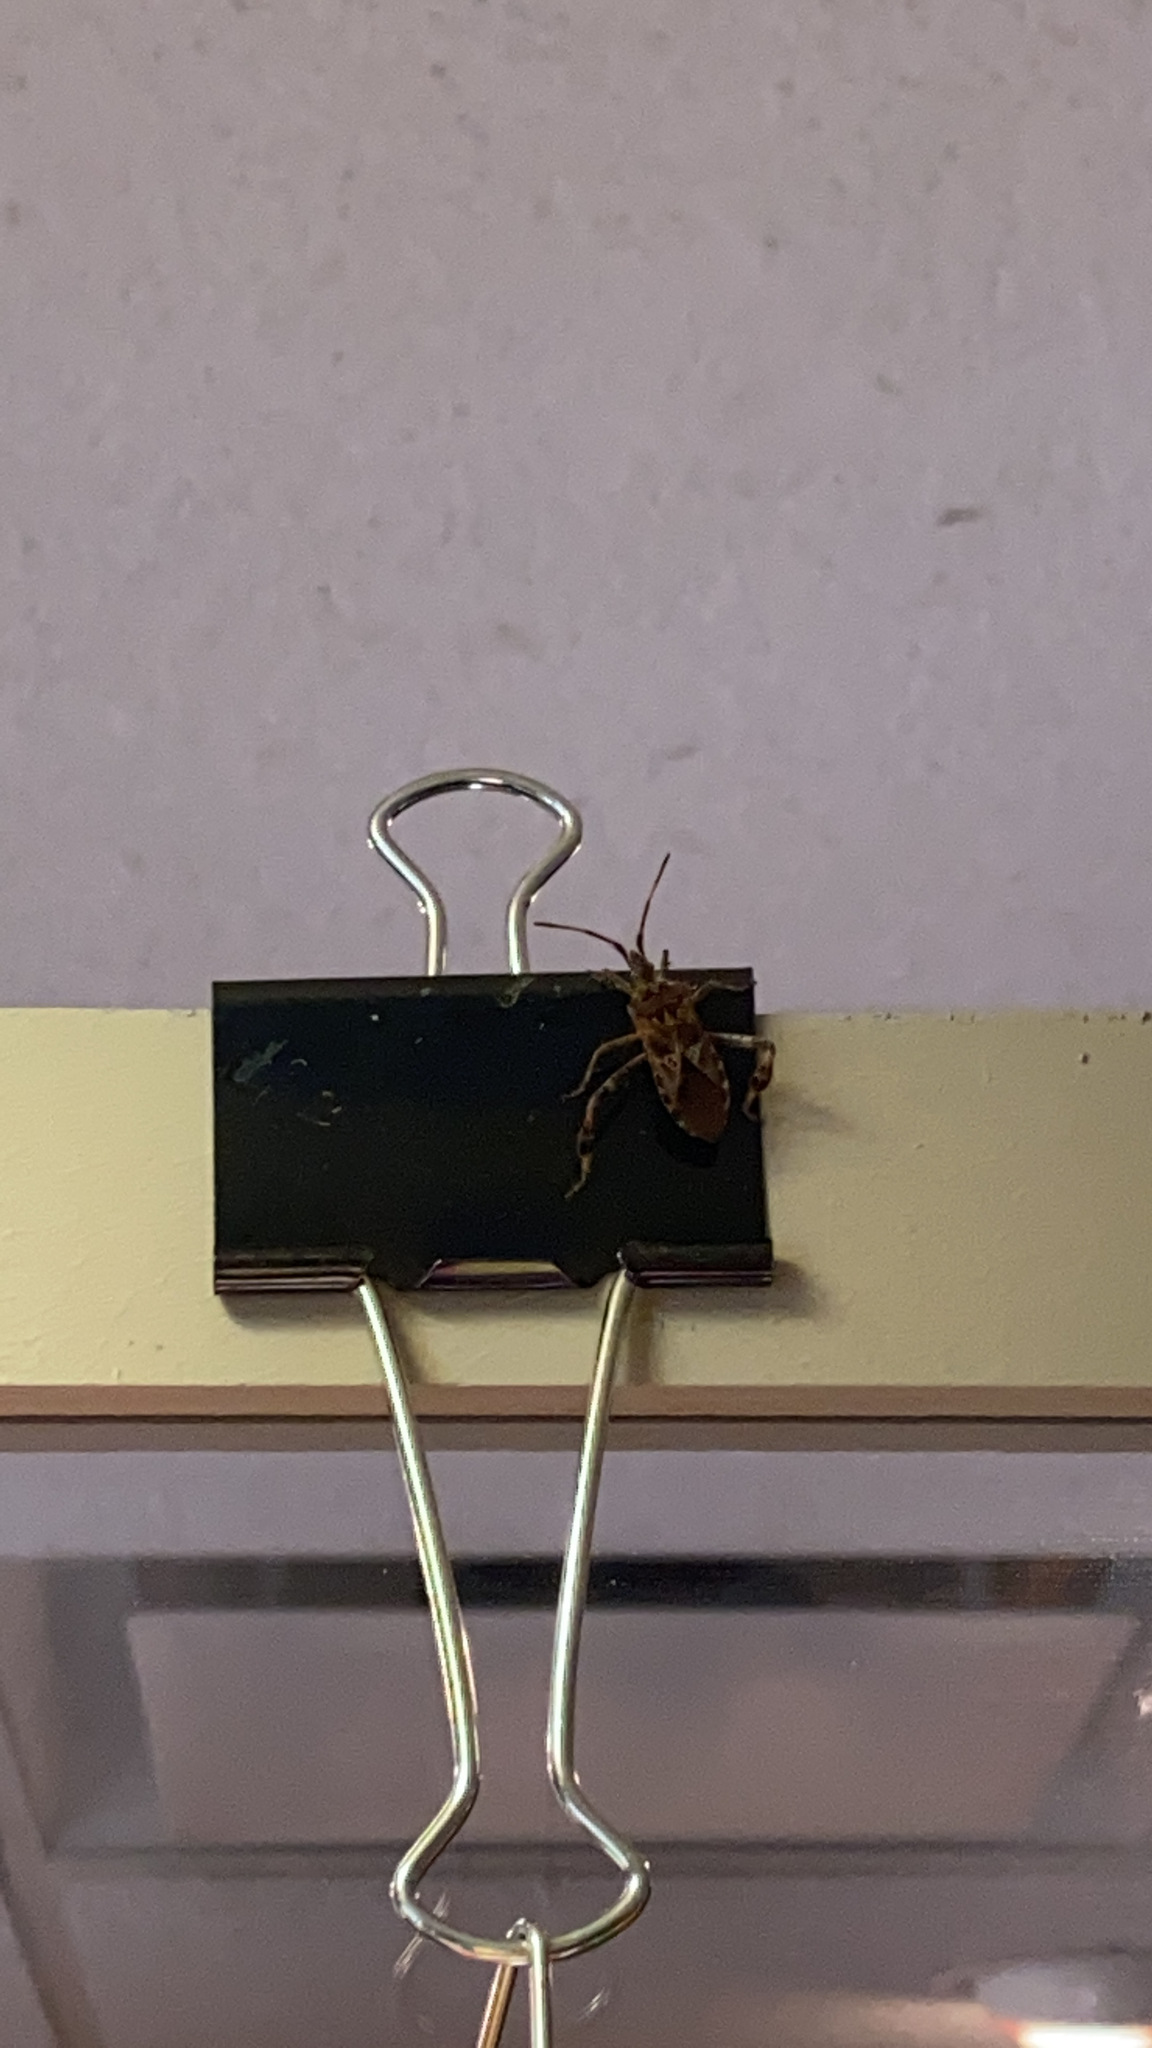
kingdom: Animalia
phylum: Arthropoda
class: Insecta
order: Hemiptera
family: Coreidae
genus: Leptoglossus
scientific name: Leptoglossus occidentalis
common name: Western conifer-seed bug
